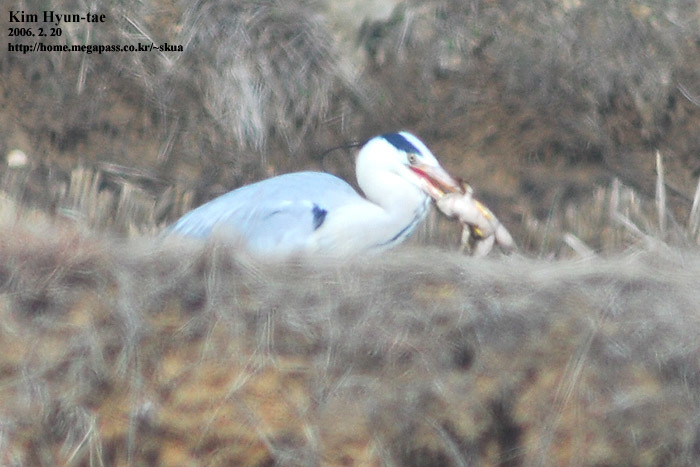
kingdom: Animalia
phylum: Chordata
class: Aves
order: Pelecaniformes
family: Ardeidae
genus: Ardea
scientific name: Ardea cinerea
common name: Grey heron
